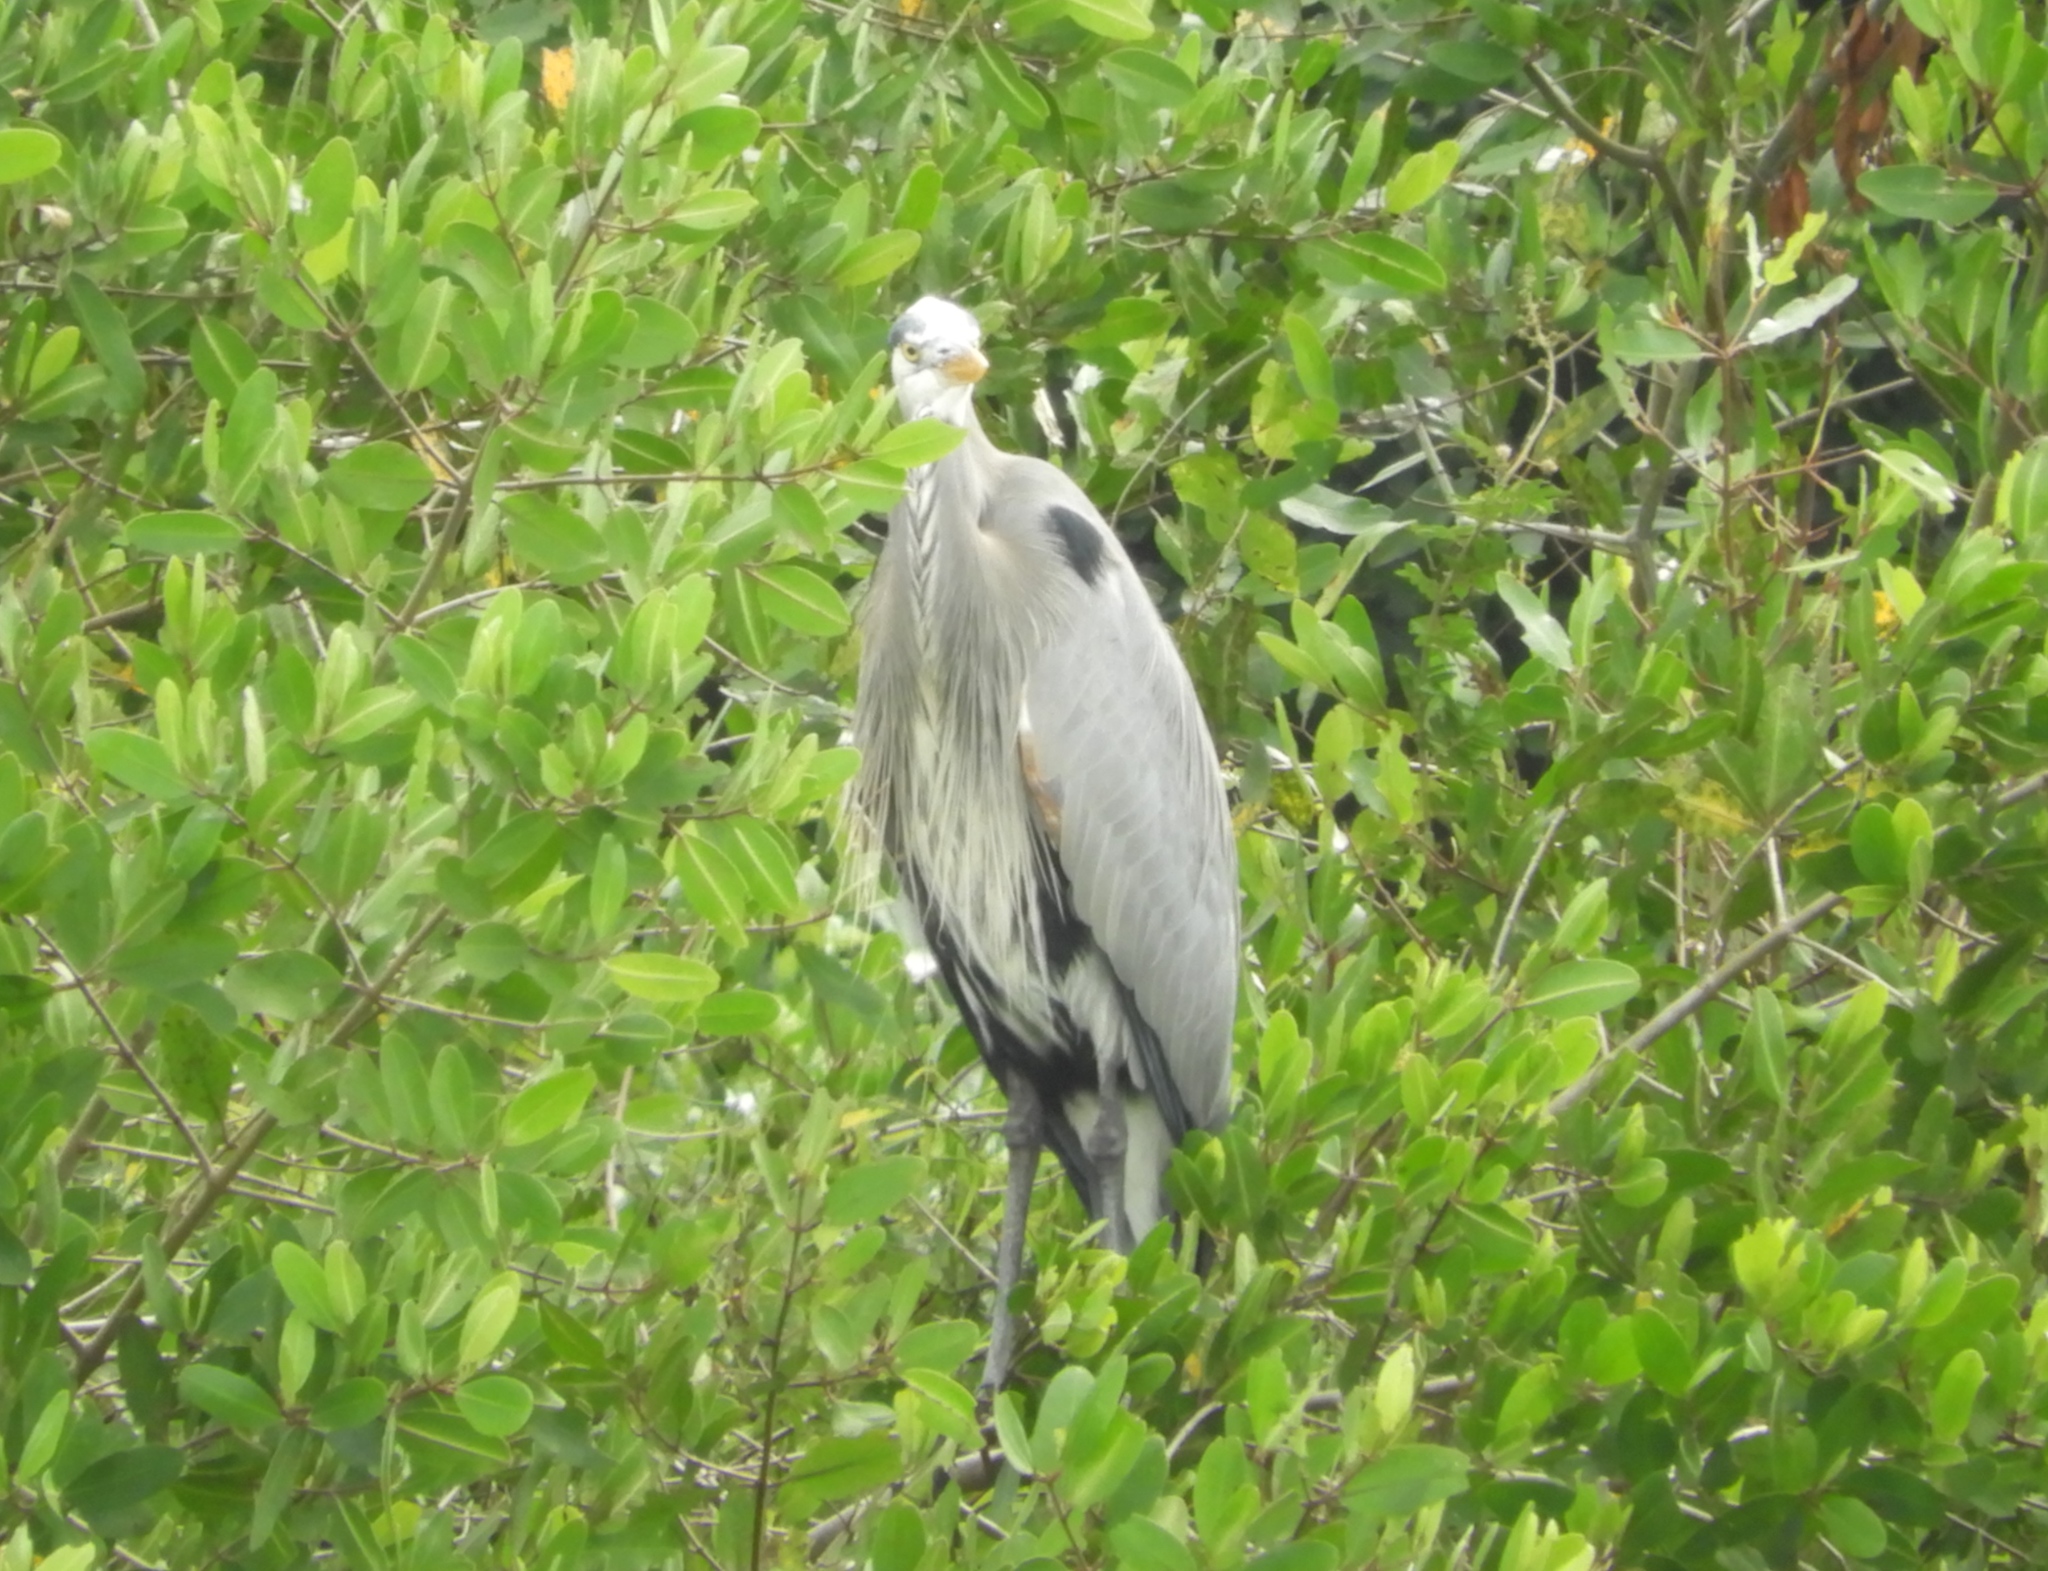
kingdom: Animalia
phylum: Chordata
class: Aves
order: Pelecaniformes
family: Ardeidae
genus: Ardea
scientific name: Ardea herodias
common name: Great blue heron
